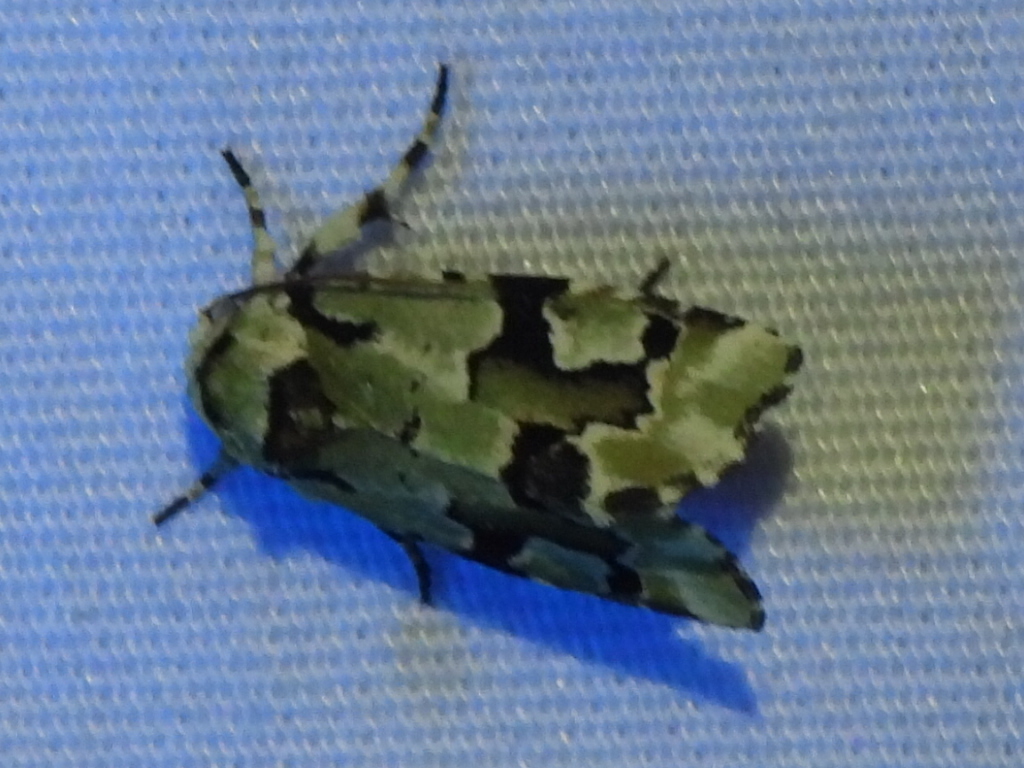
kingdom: Animalia
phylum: Arthropoda
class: Insecta
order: Lepidoptera
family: Noctuidae
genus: Emarginea
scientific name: Emarginea percara
